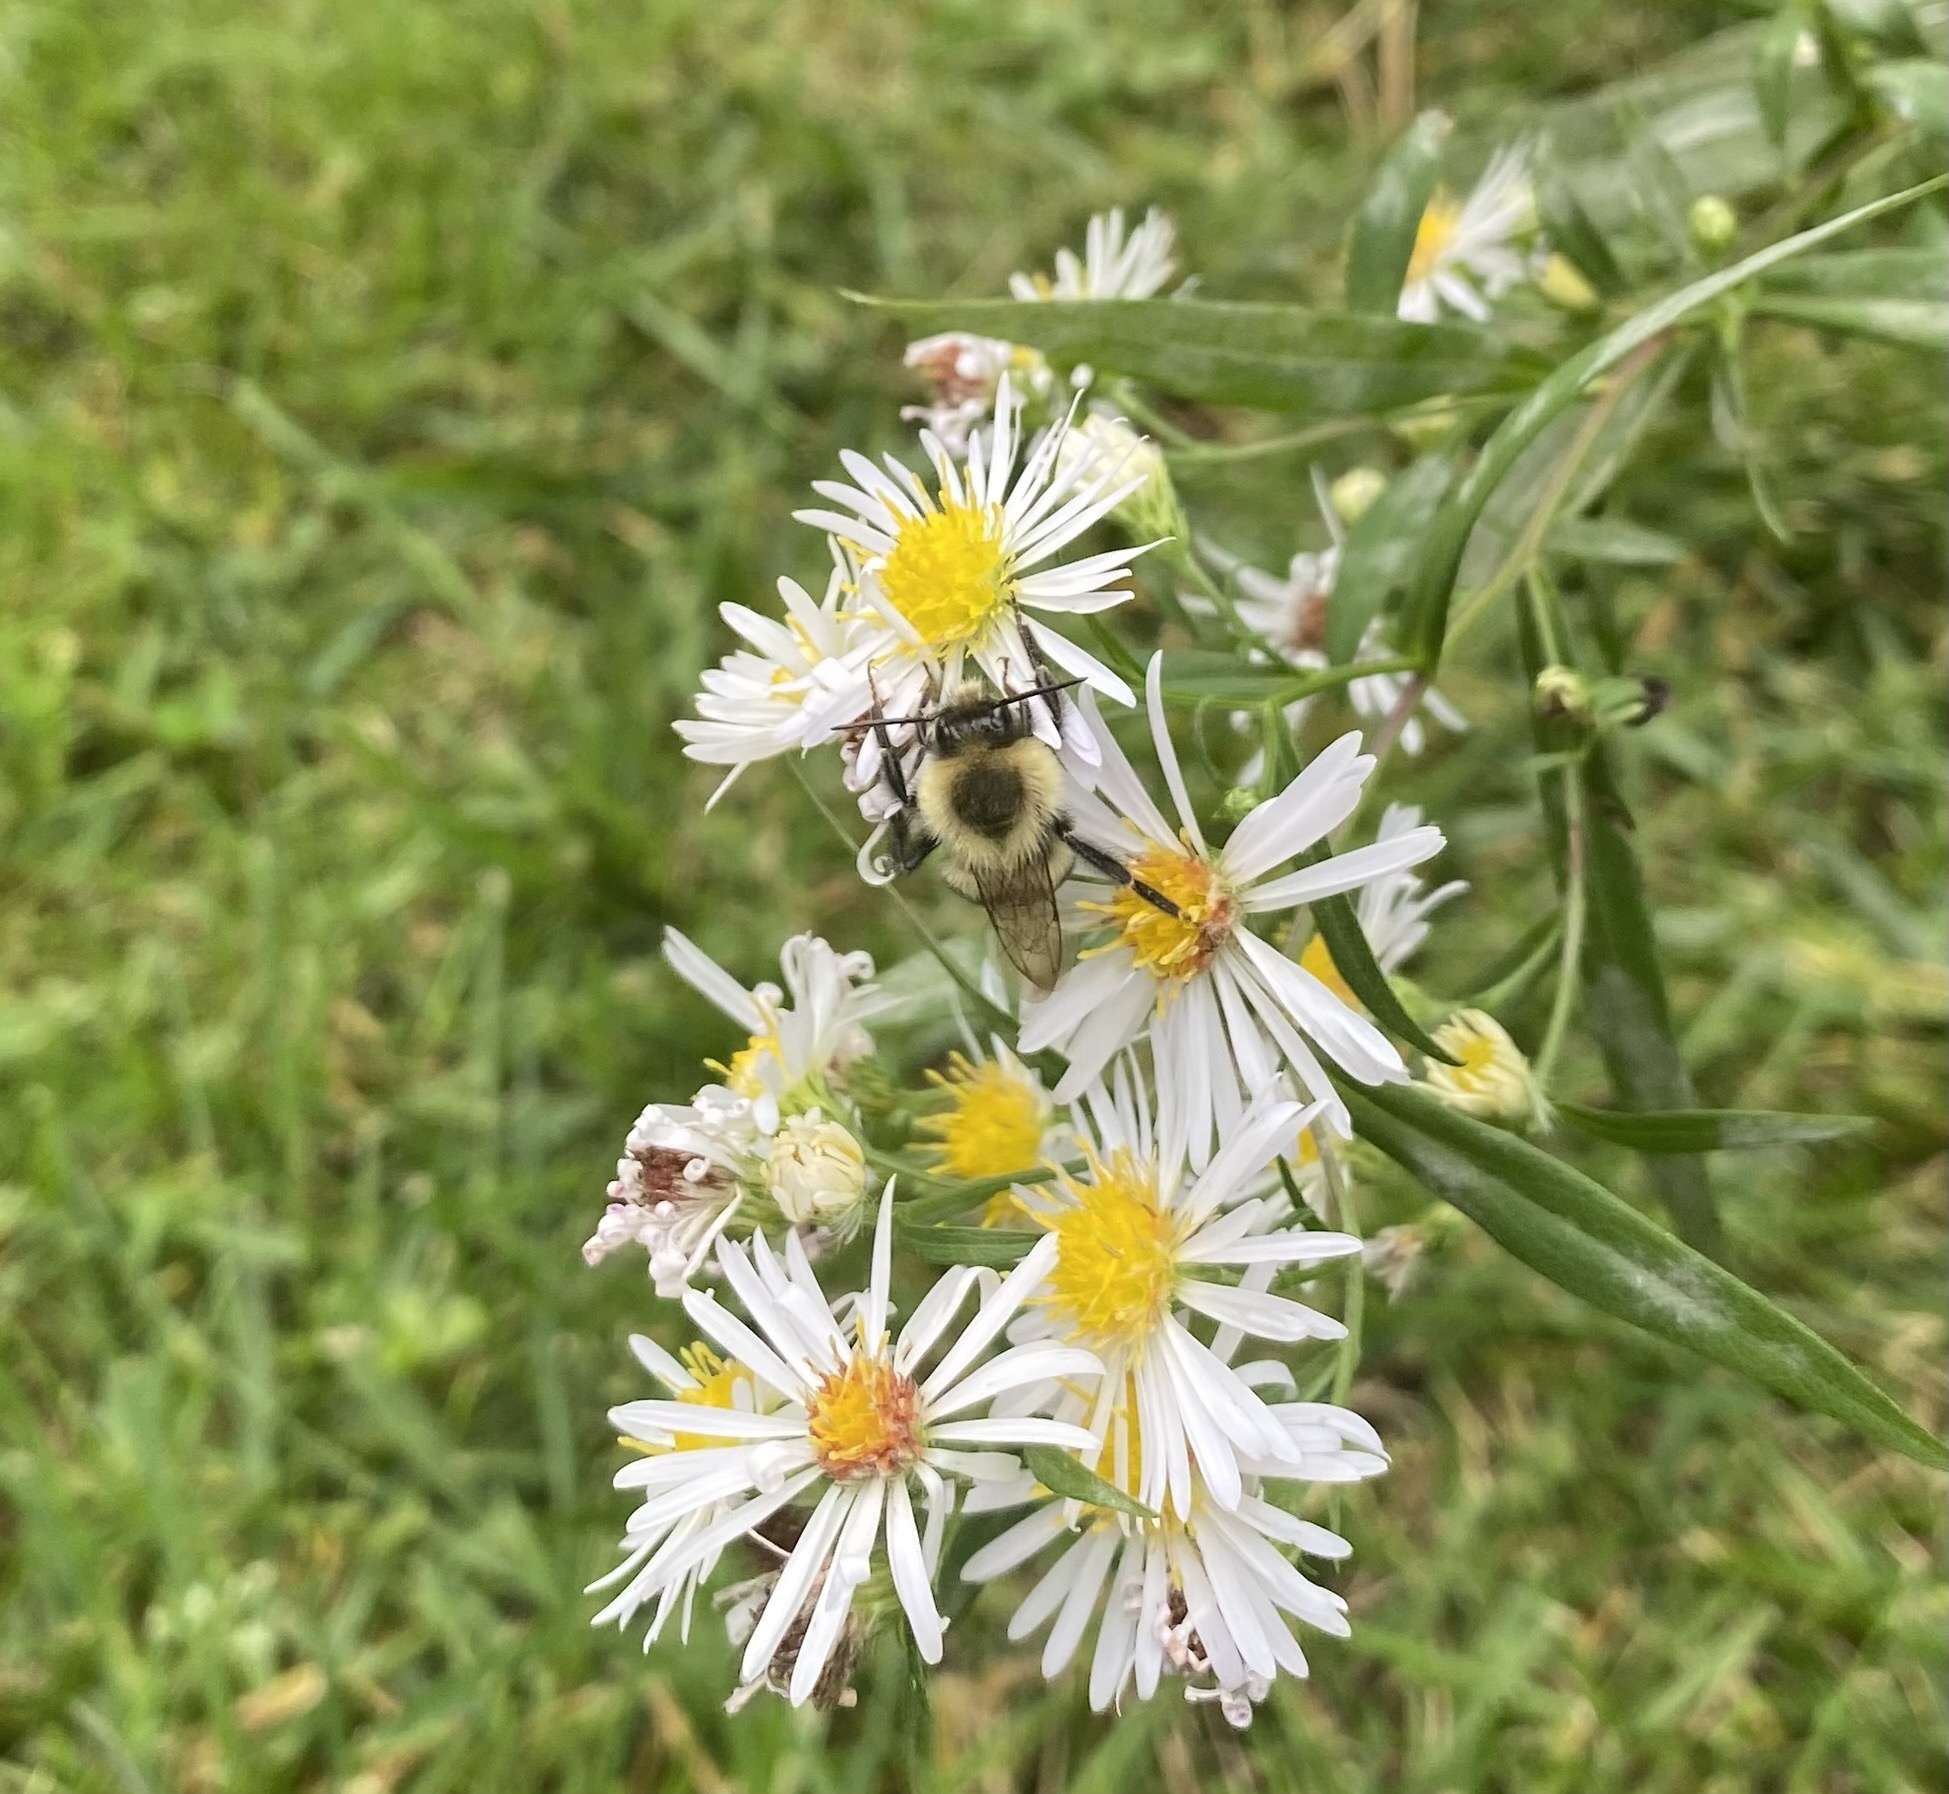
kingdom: Animalia
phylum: Arthropoda
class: Insecta
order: Hymenoptera
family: Apidae
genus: Bombus
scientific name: Bombus impatiens
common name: Common eastern bumble bee
